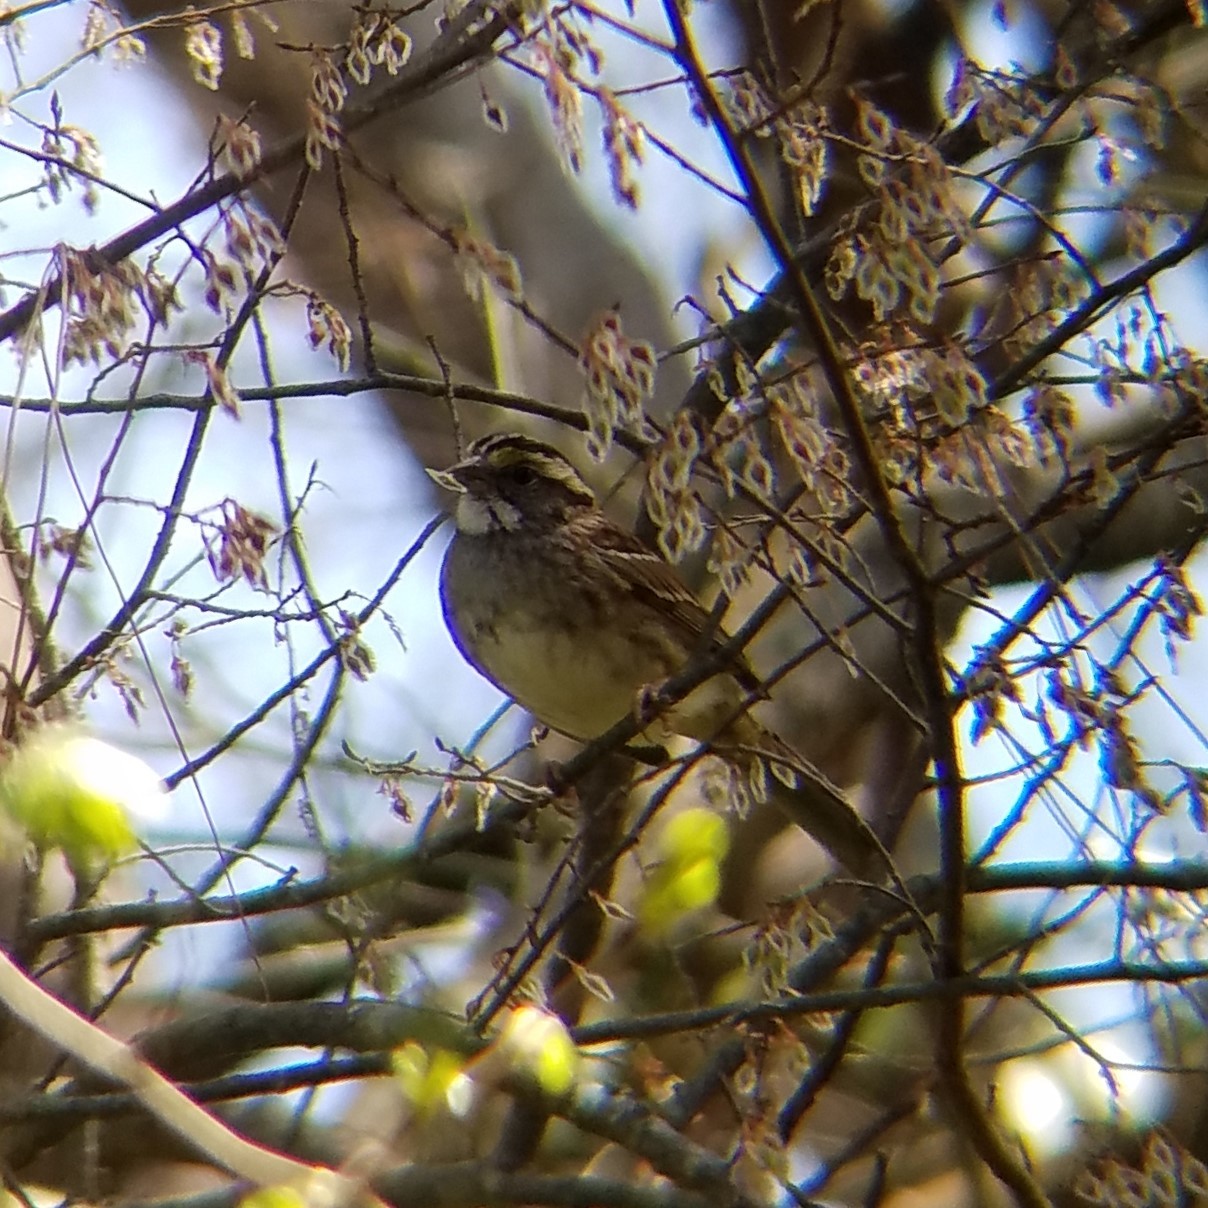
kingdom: Animalia
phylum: Chordata
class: Aves
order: Passeriformes
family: Passerellidae
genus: Zonotrichia
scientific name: Zonotrichia albicollis
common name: White-throated sparrow
